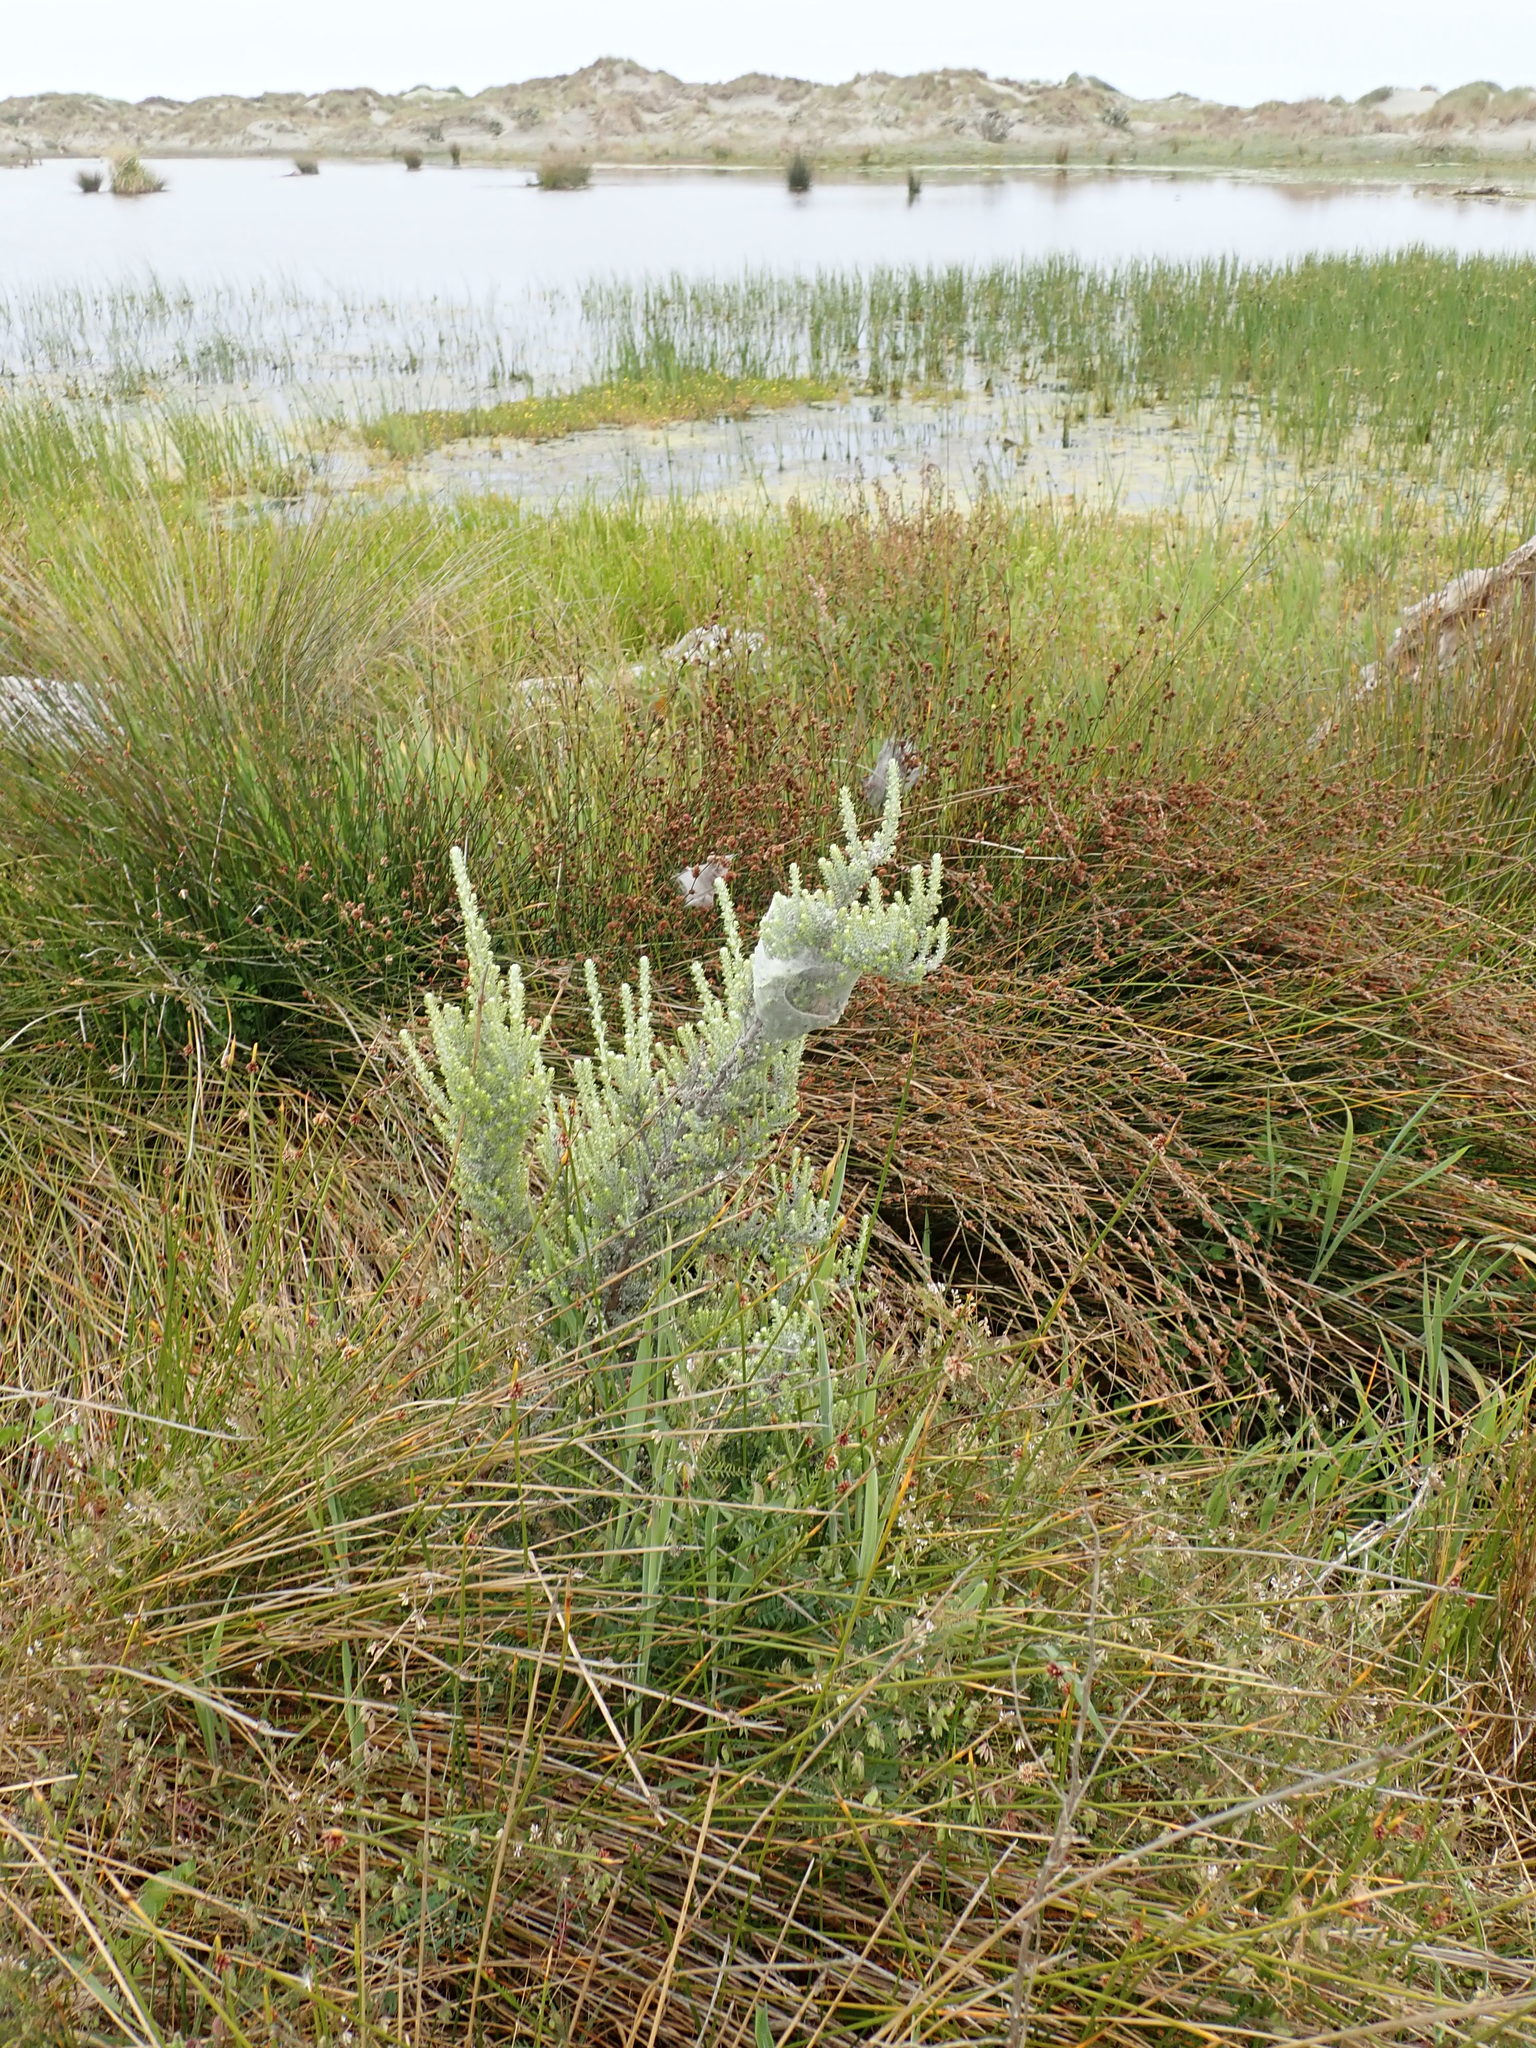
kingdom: Animalia
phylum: Arthropoda
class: Arachnida
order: Araneae
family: Pisauridae
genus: Dolomedes
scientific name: Dolomedes minor
